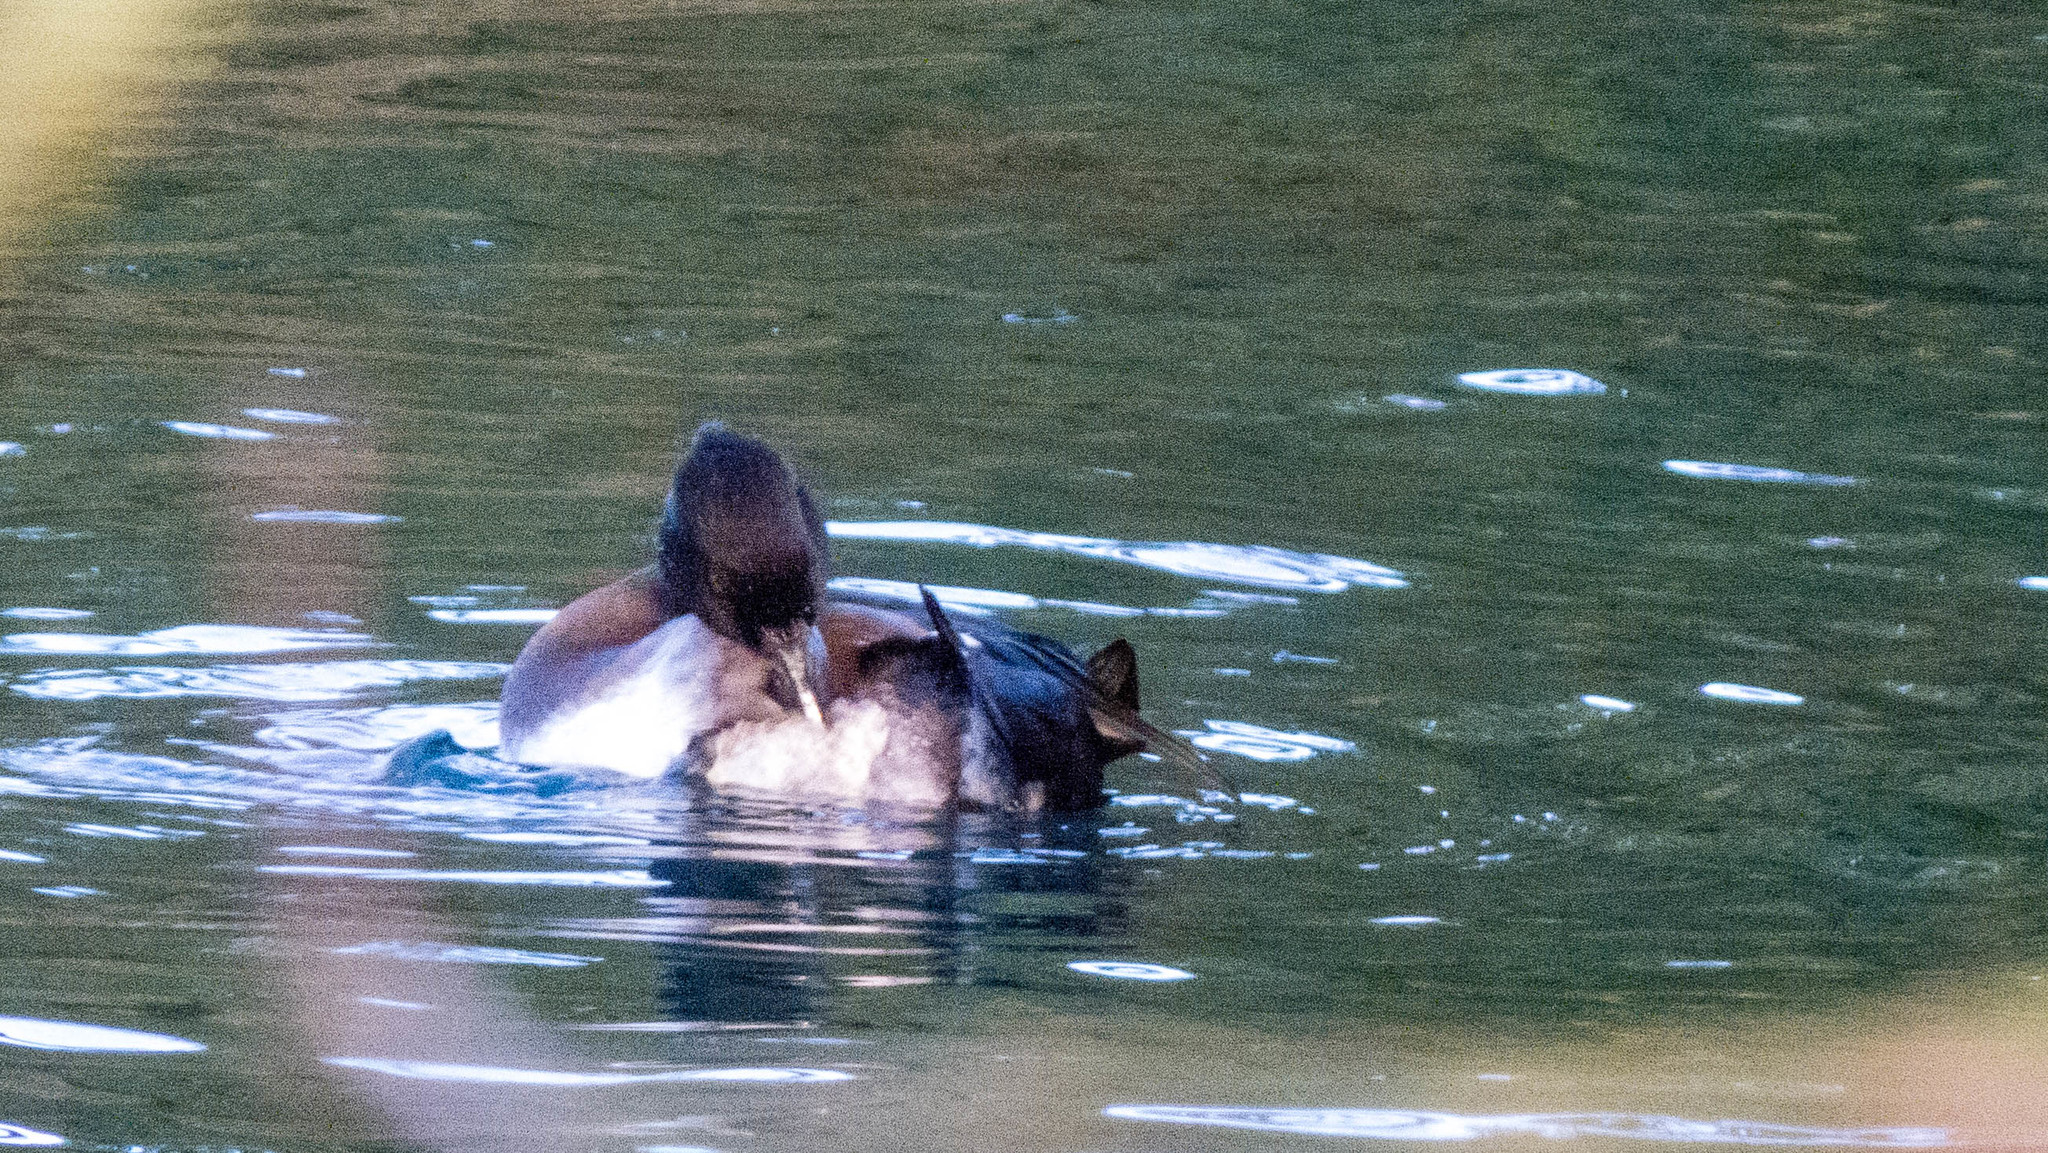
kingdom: Animalia
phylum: Chordata
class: Aves
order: Anseriformes
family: Anatidae
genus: Aythya
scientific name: Aythya fuligula
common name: Tufted duck
